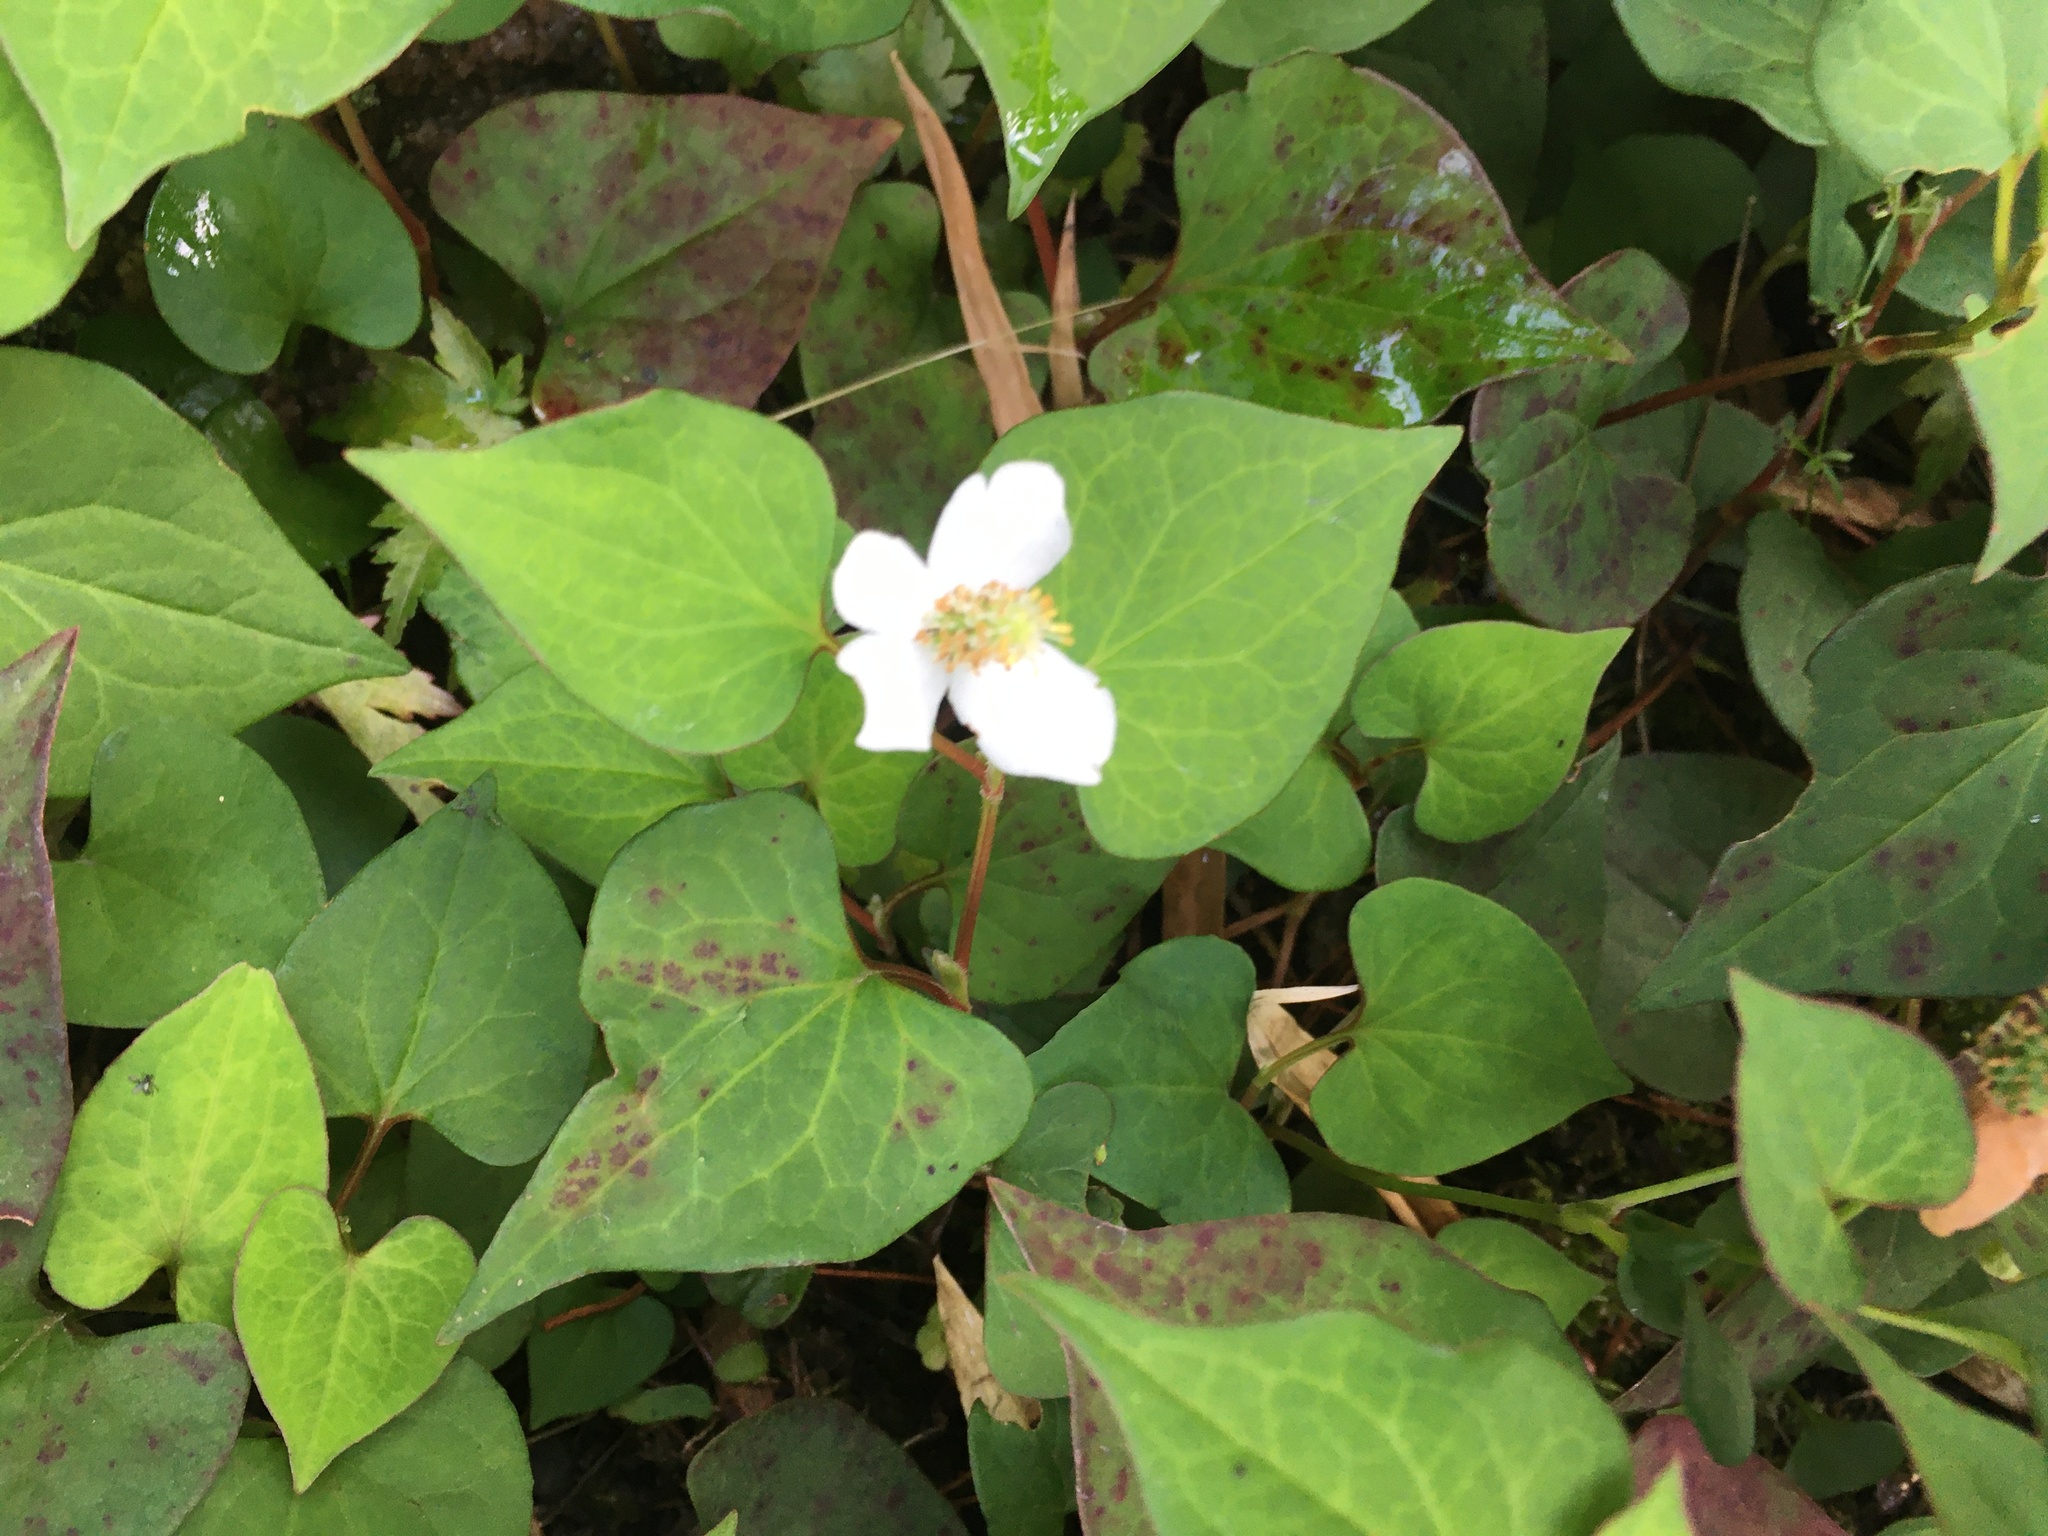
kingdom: Plantae
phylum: Tracheophyta
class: Magnoliopsida
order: Piperales
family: Saururaceae
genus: Houttuynia
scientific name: Houttuynia cordata
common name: Chameleon
